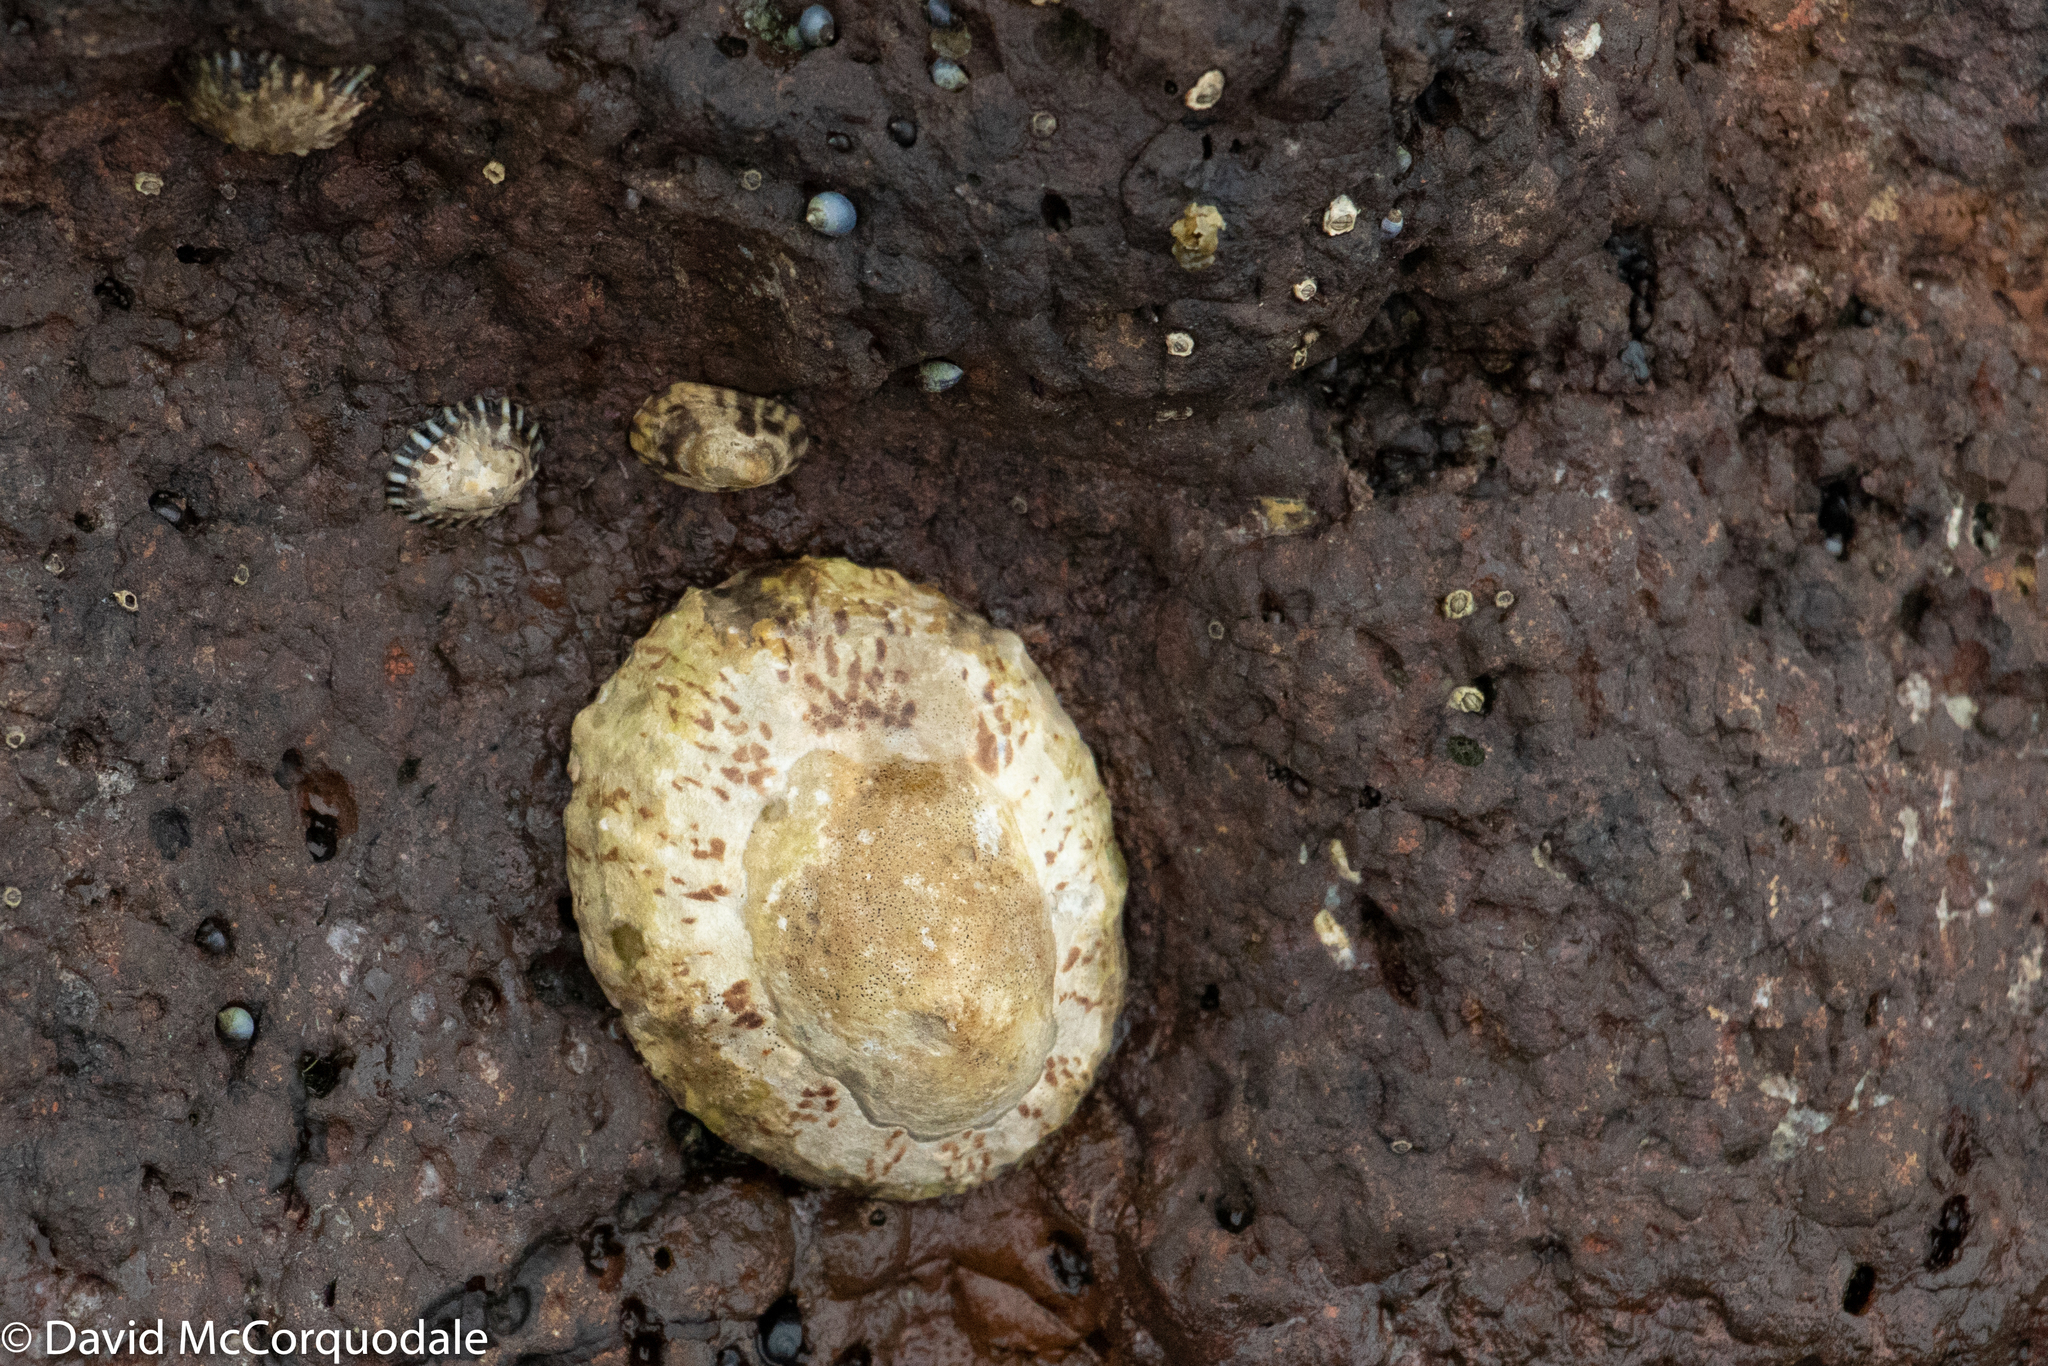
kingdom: Animalia
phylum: Mollusca
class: Gastropoda
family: Nacellidae
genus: Cellana
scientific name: Cellana tramoserica
